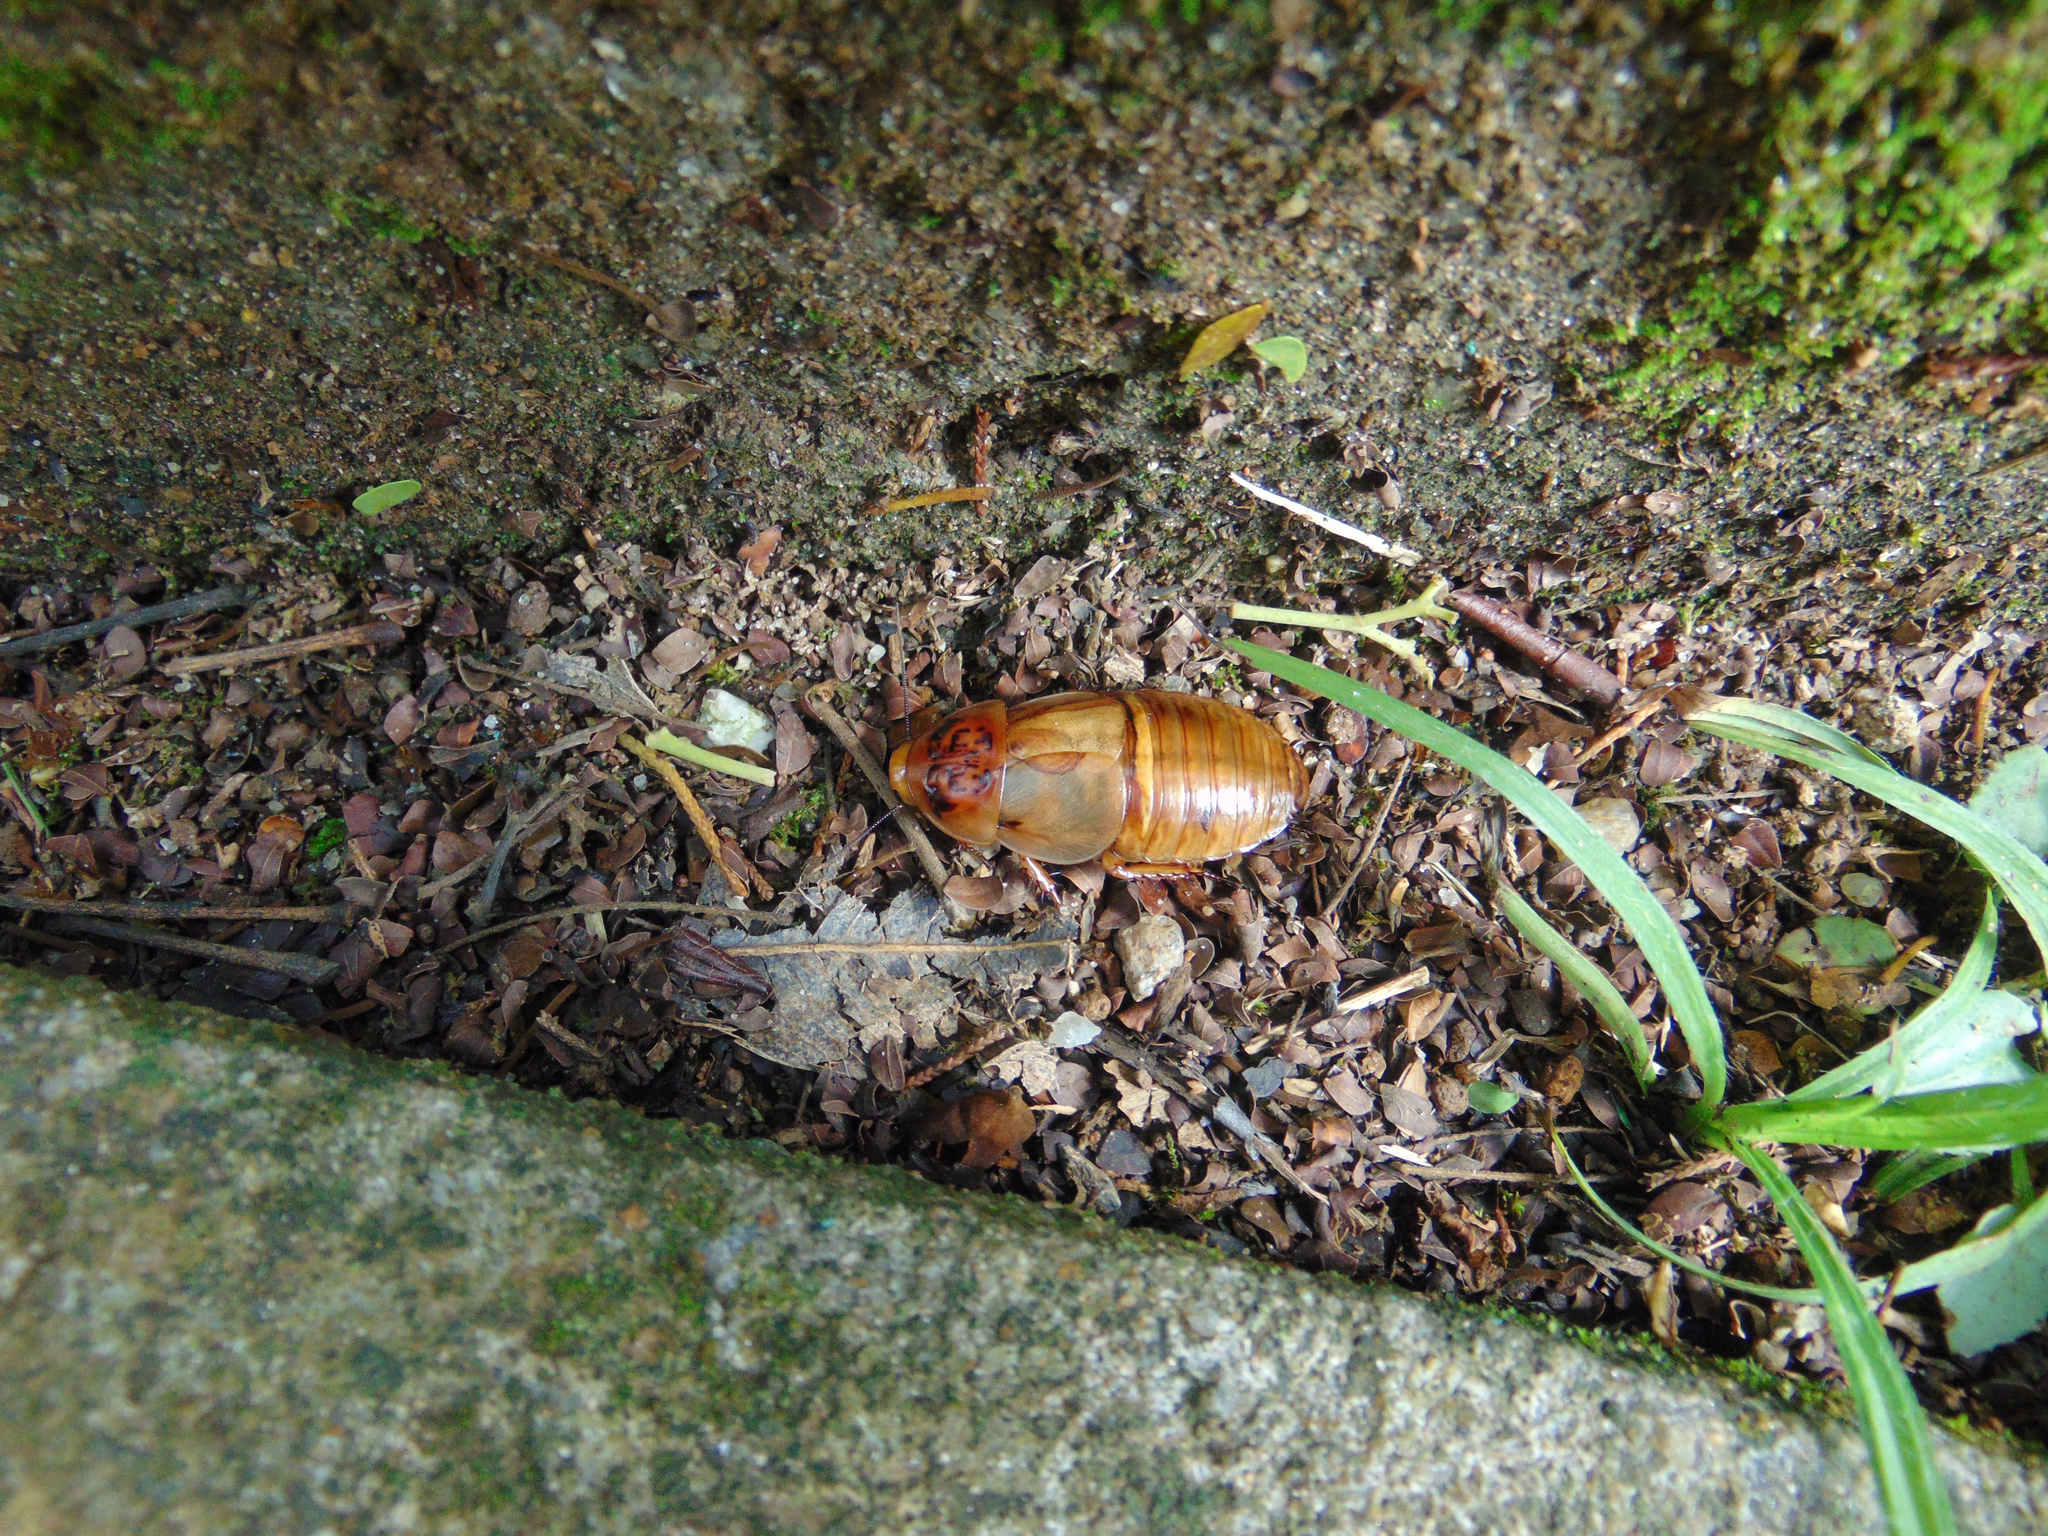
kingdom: Animalia
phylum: Arthropoda
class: Insecta
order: Blattodea
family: Blaberidae
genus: Hormetica
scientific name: Hormetica laevigata
